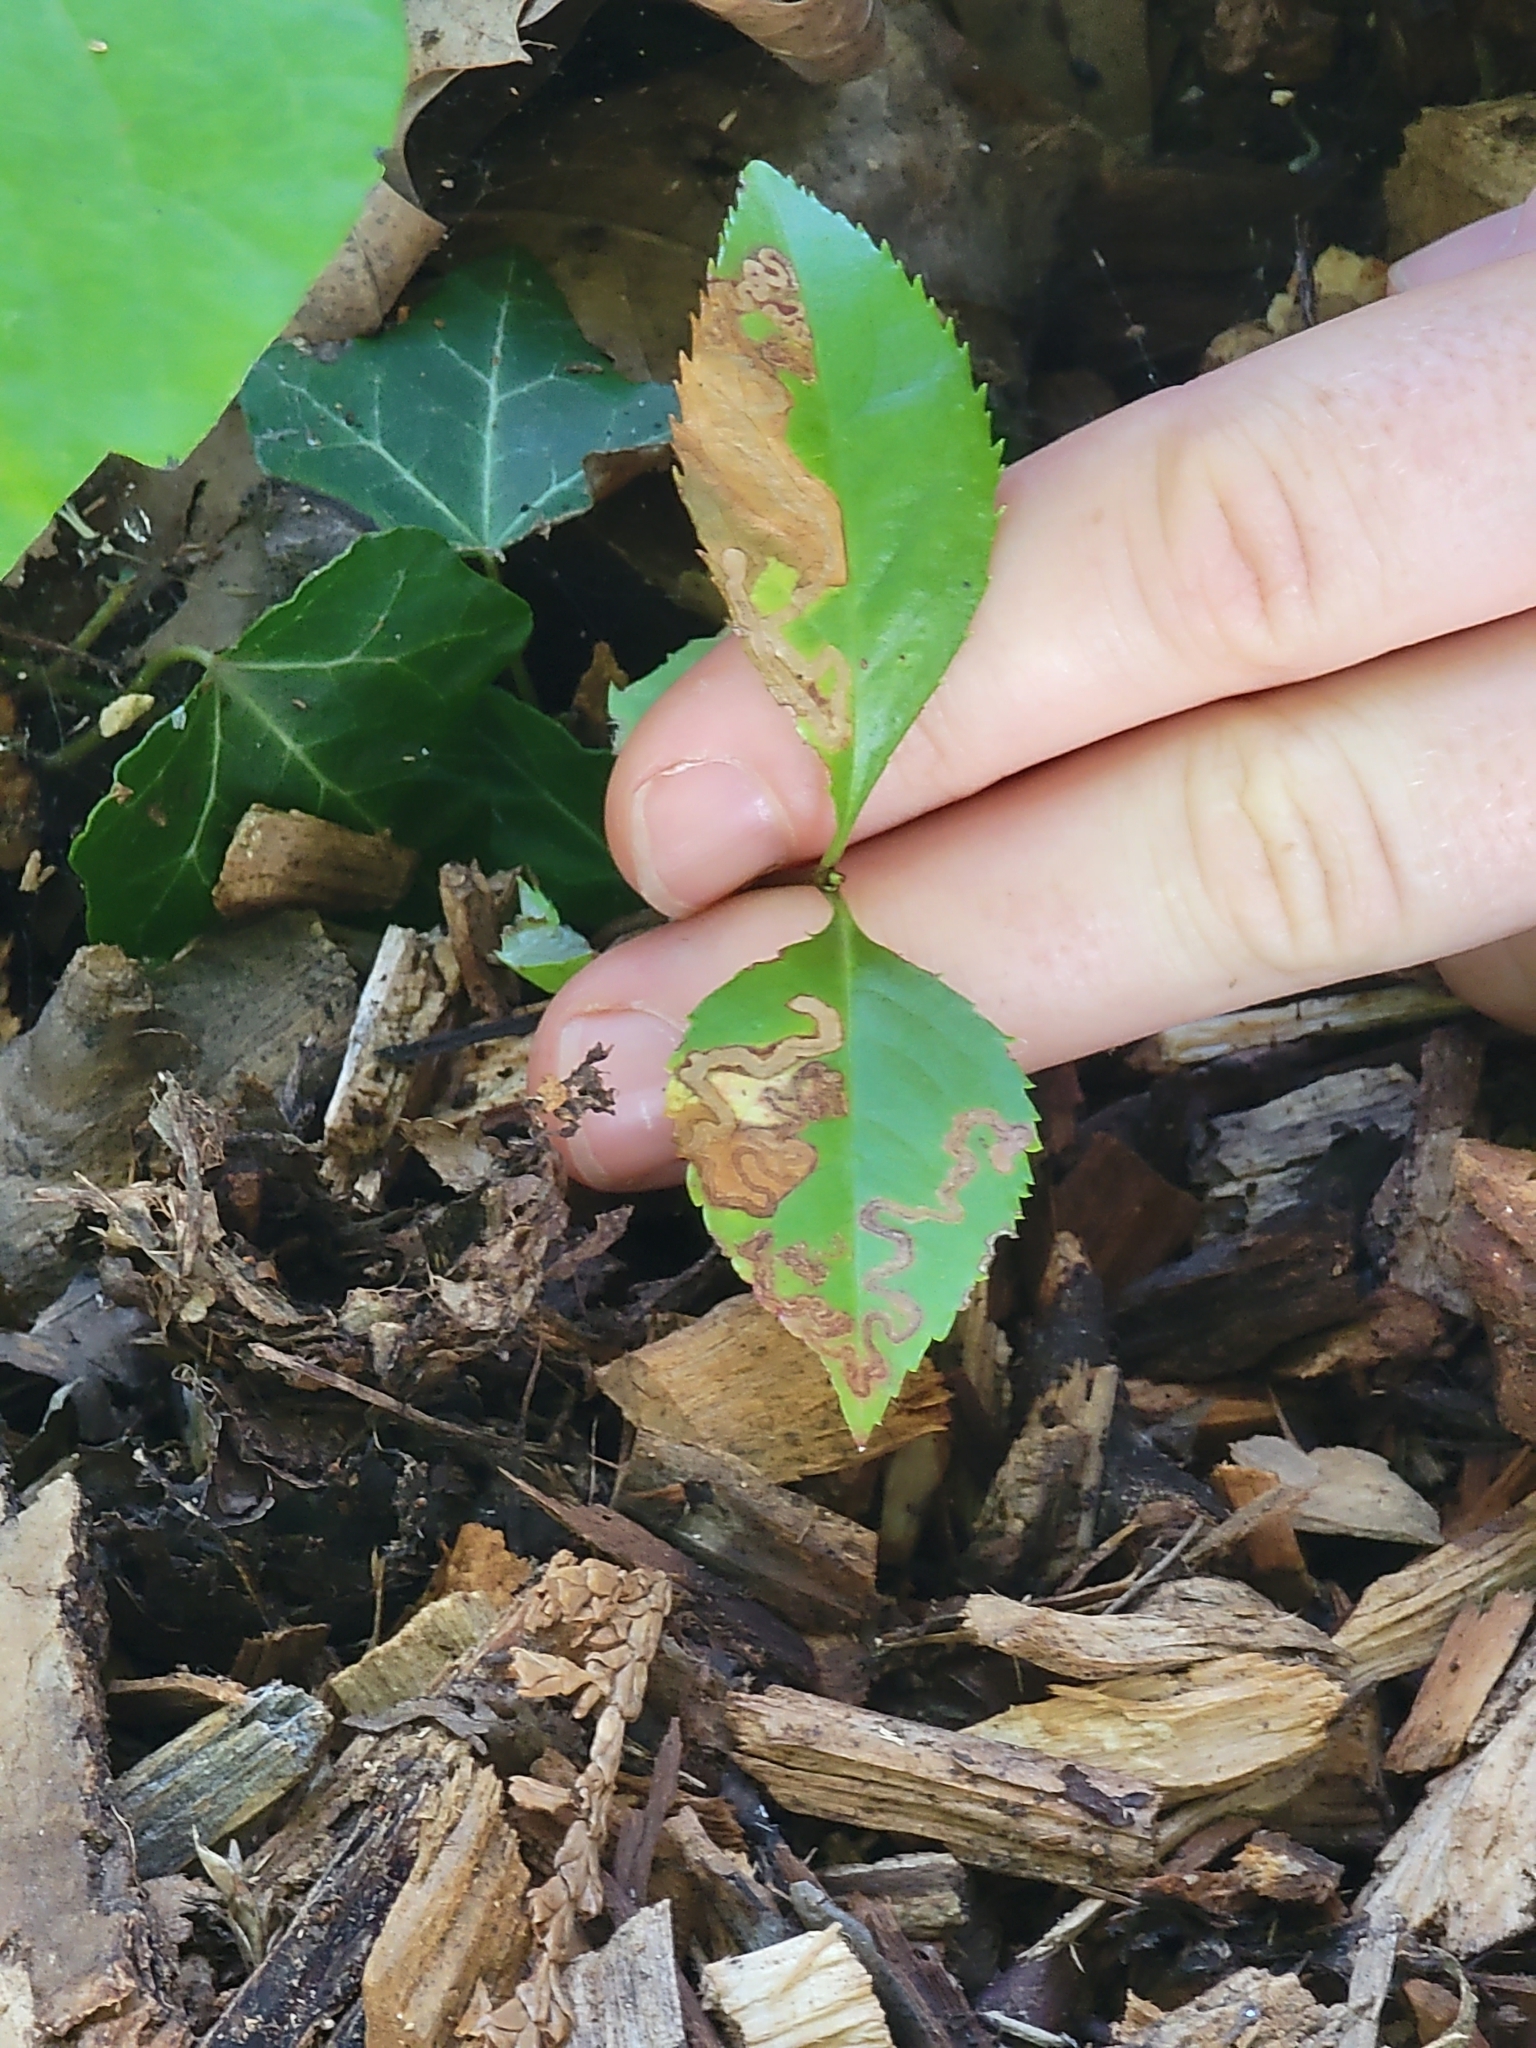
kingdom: Animalia
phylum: Arthropoda
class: Insecta
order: Lepidoptera
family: Nepticulidae
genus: Stigmella
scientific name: Stigmella prunifoliella
